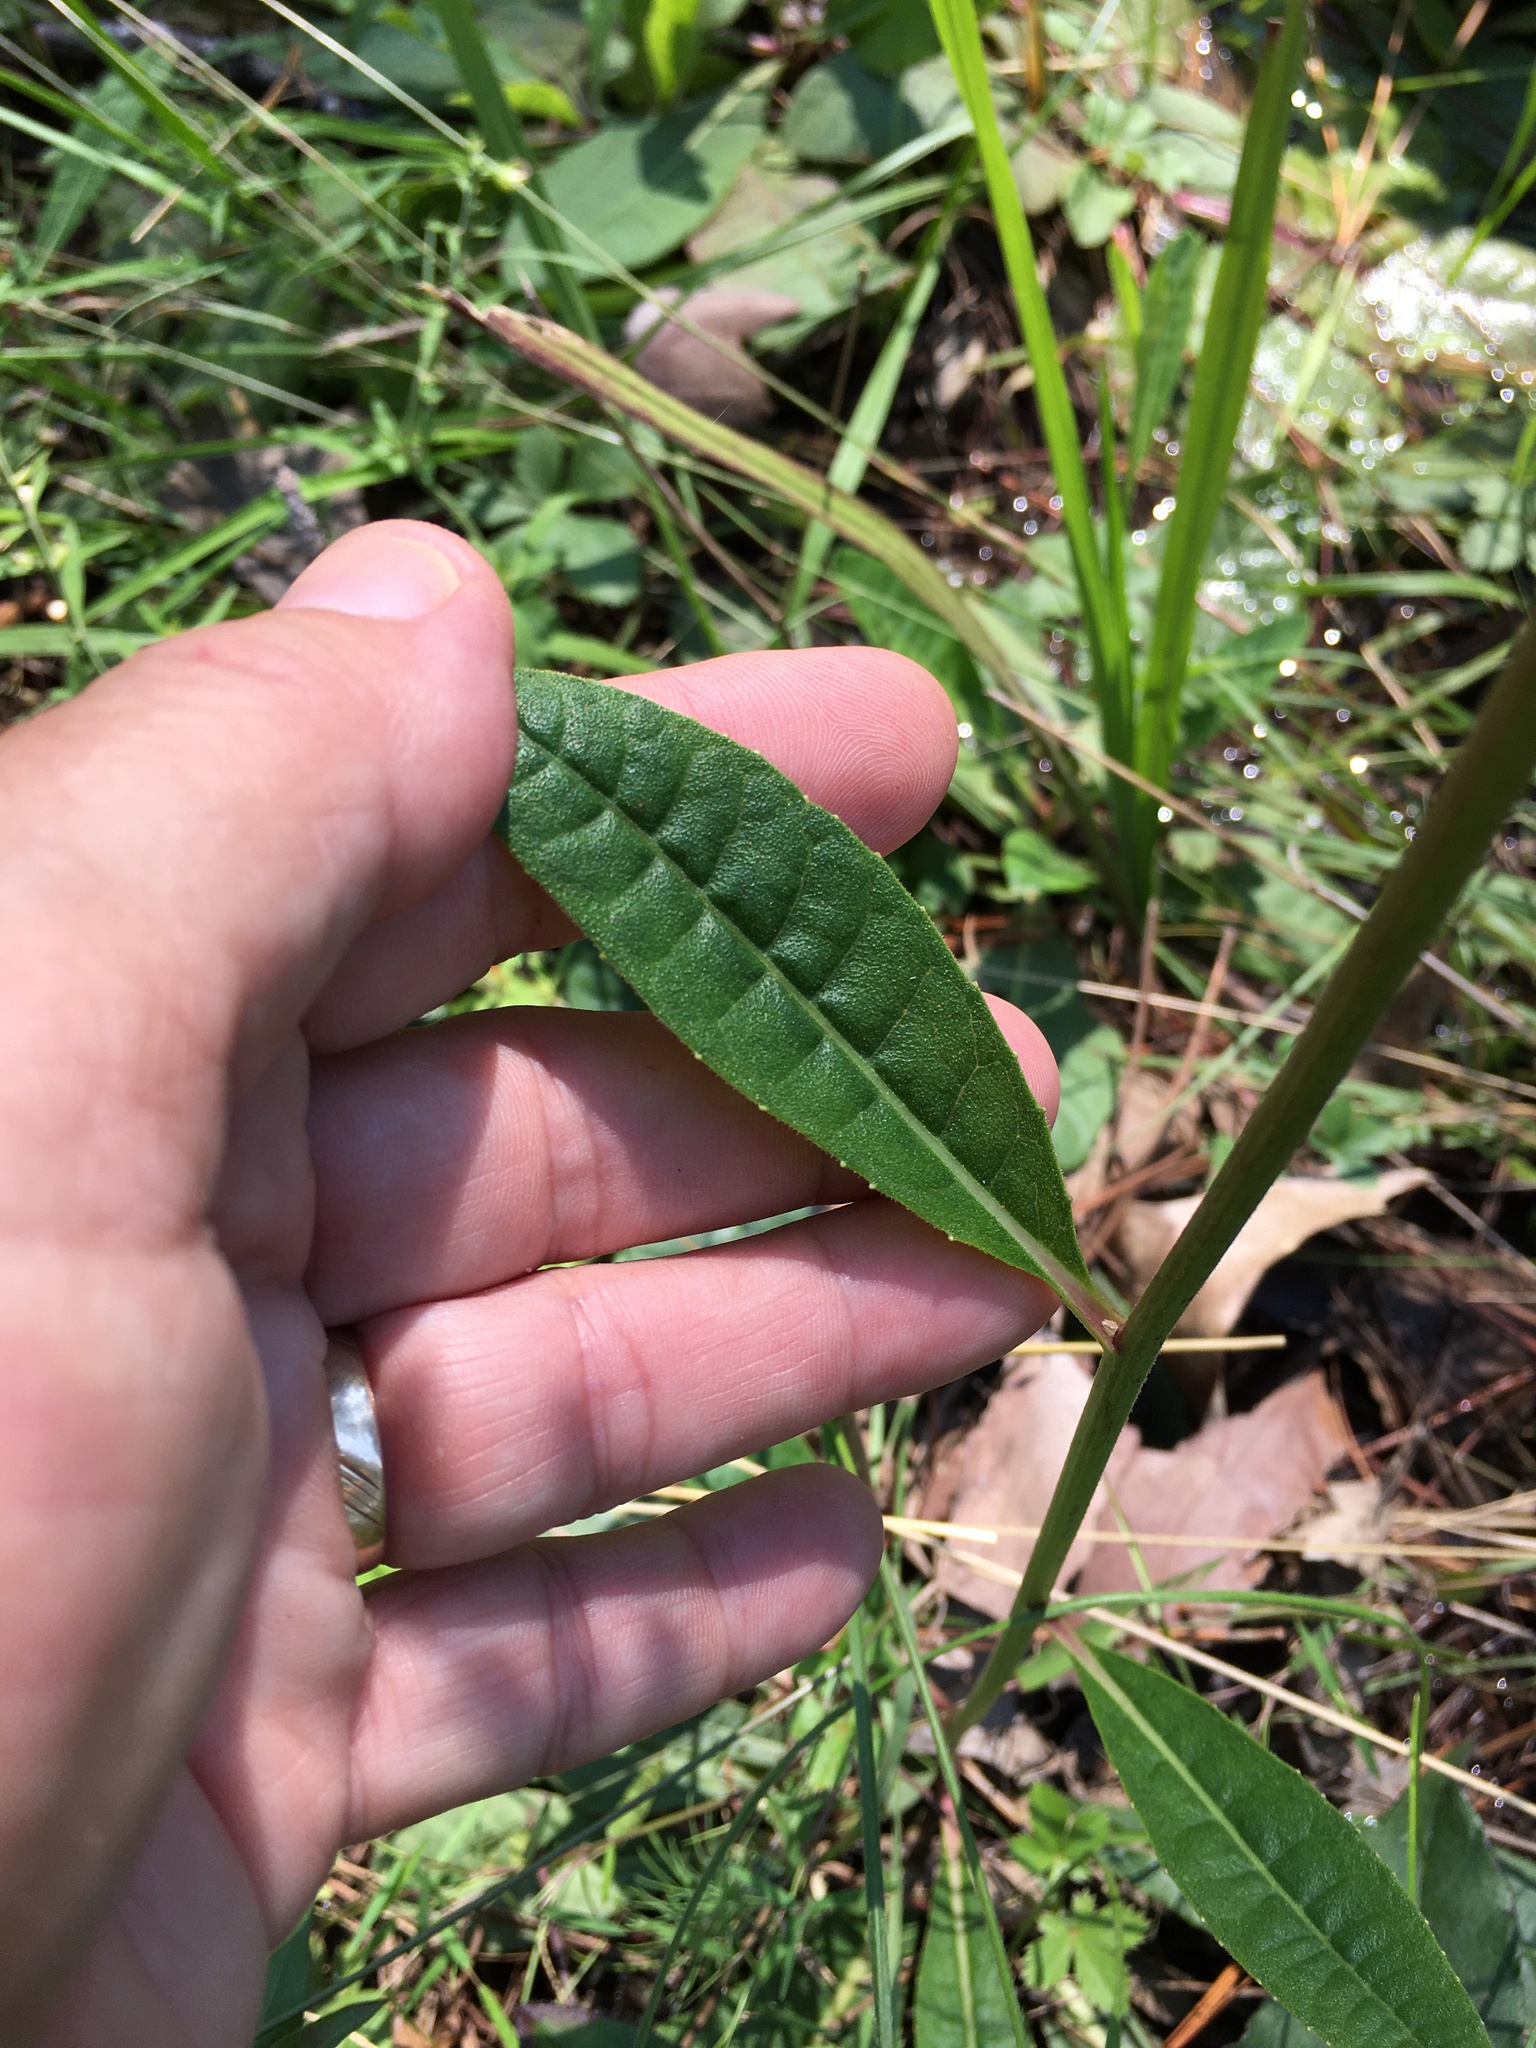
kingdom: Plantae
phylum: Tracheophyta
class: Magnoliopsida
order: Asterales
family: Asteraceae
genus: Vernonia
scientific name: Vernonia acaulis
